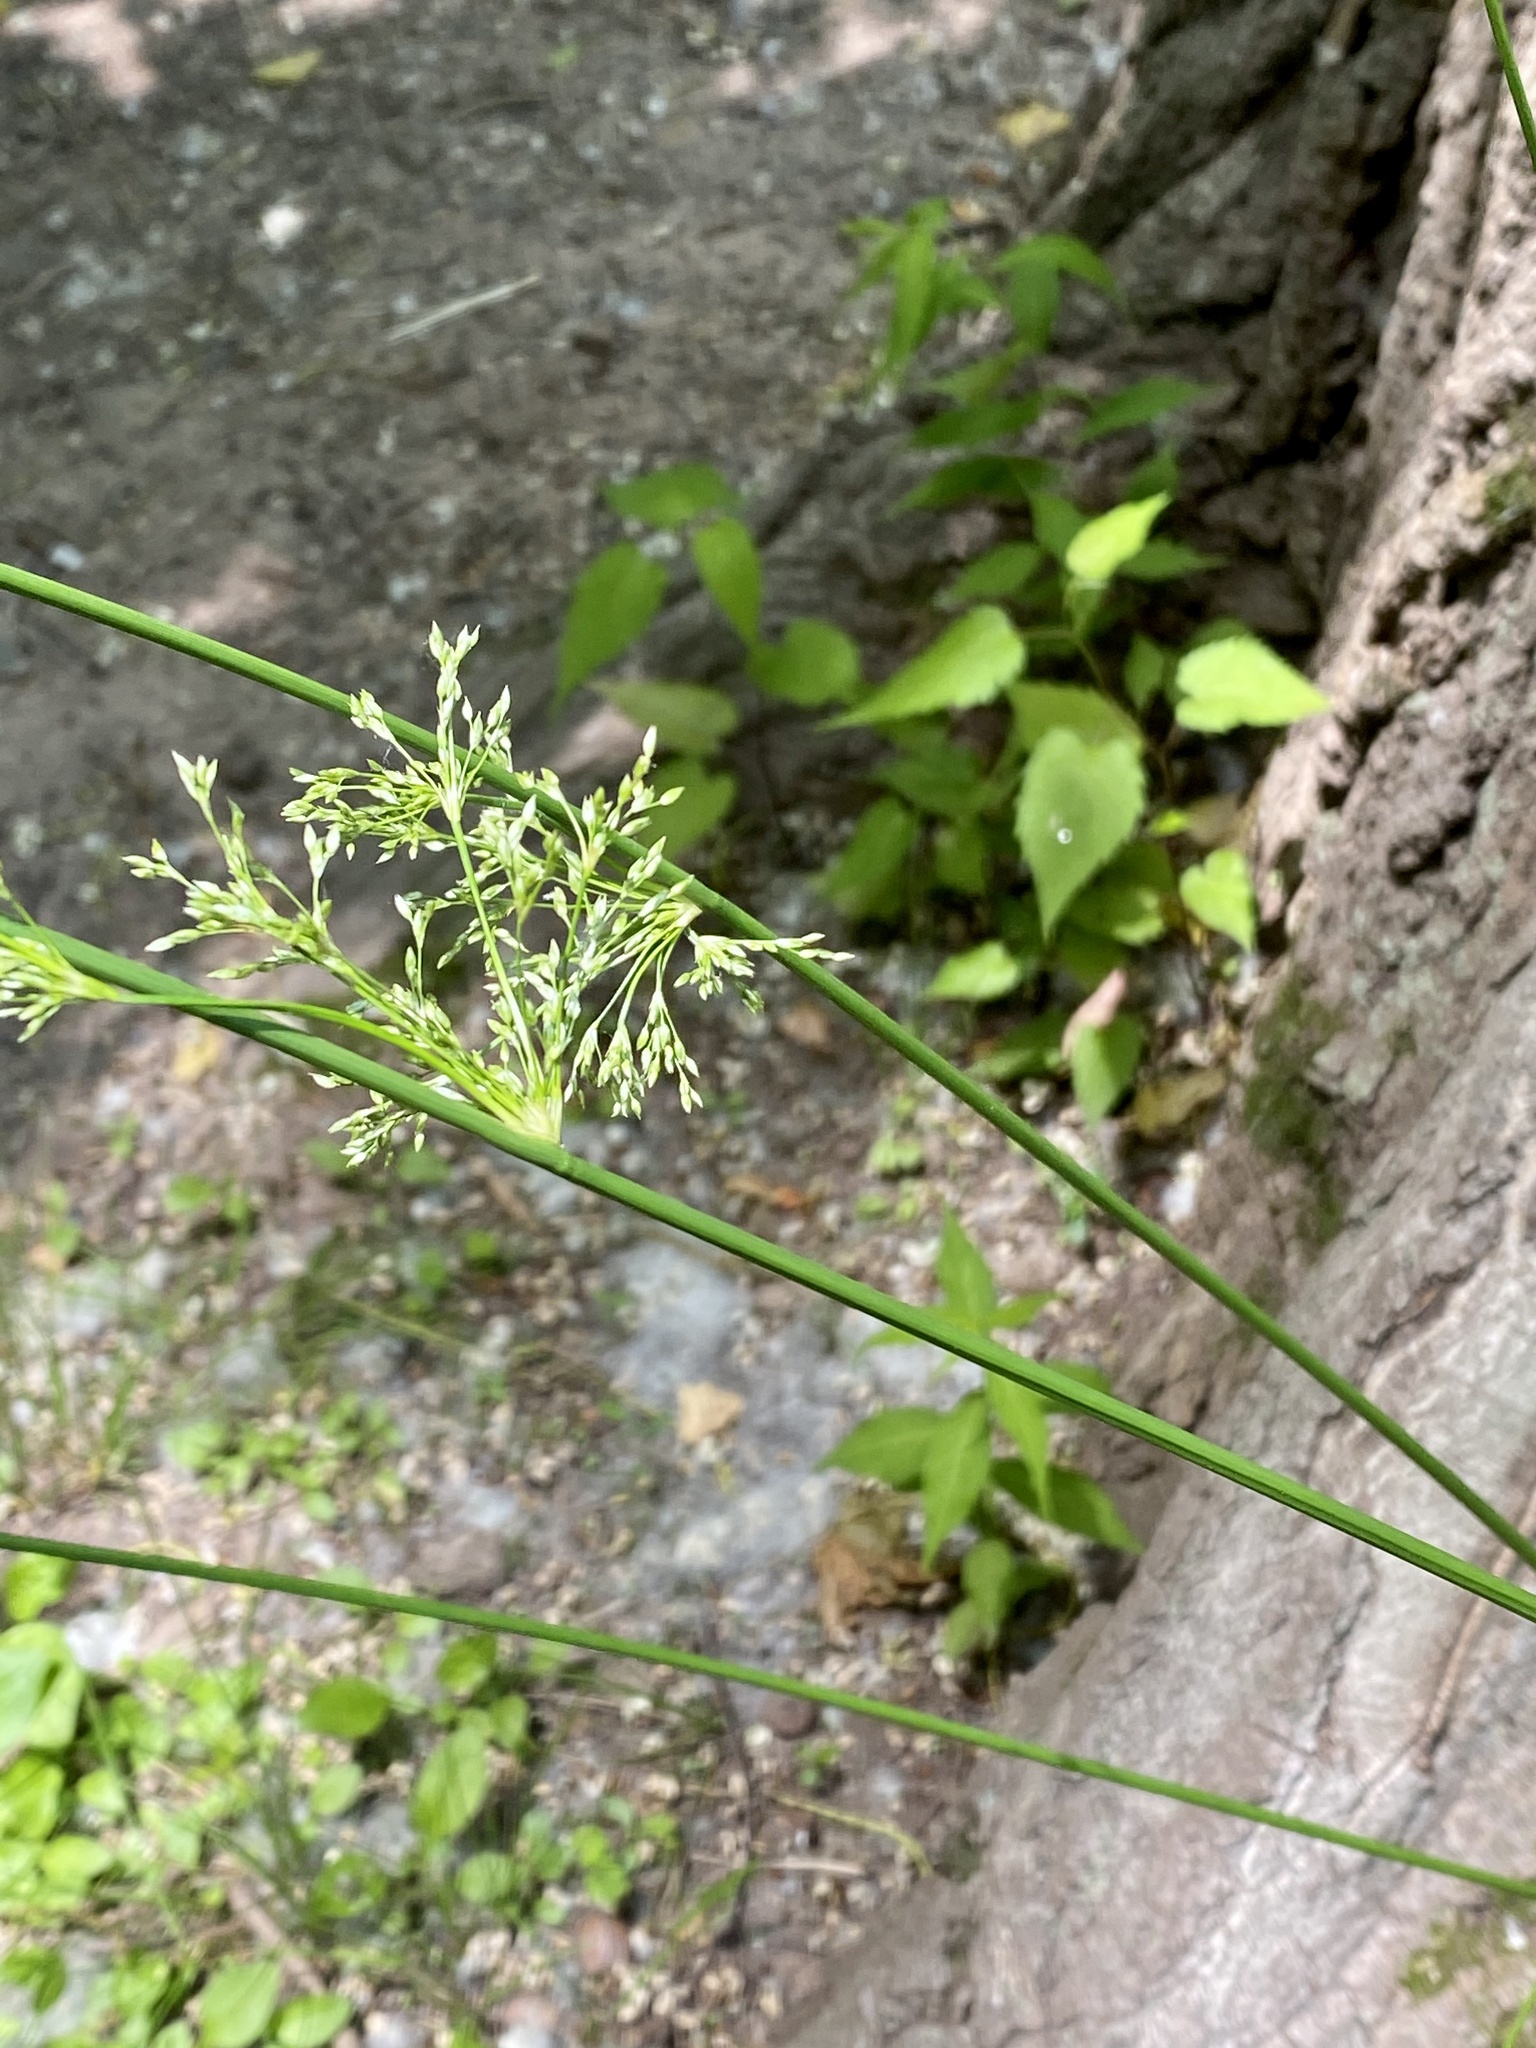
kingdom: Plantae
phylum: Tracheophyta
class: Liliopsida
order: Poales
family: Juncaceae
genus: Juncus
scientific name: Juncus effusus
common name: Soft rush
